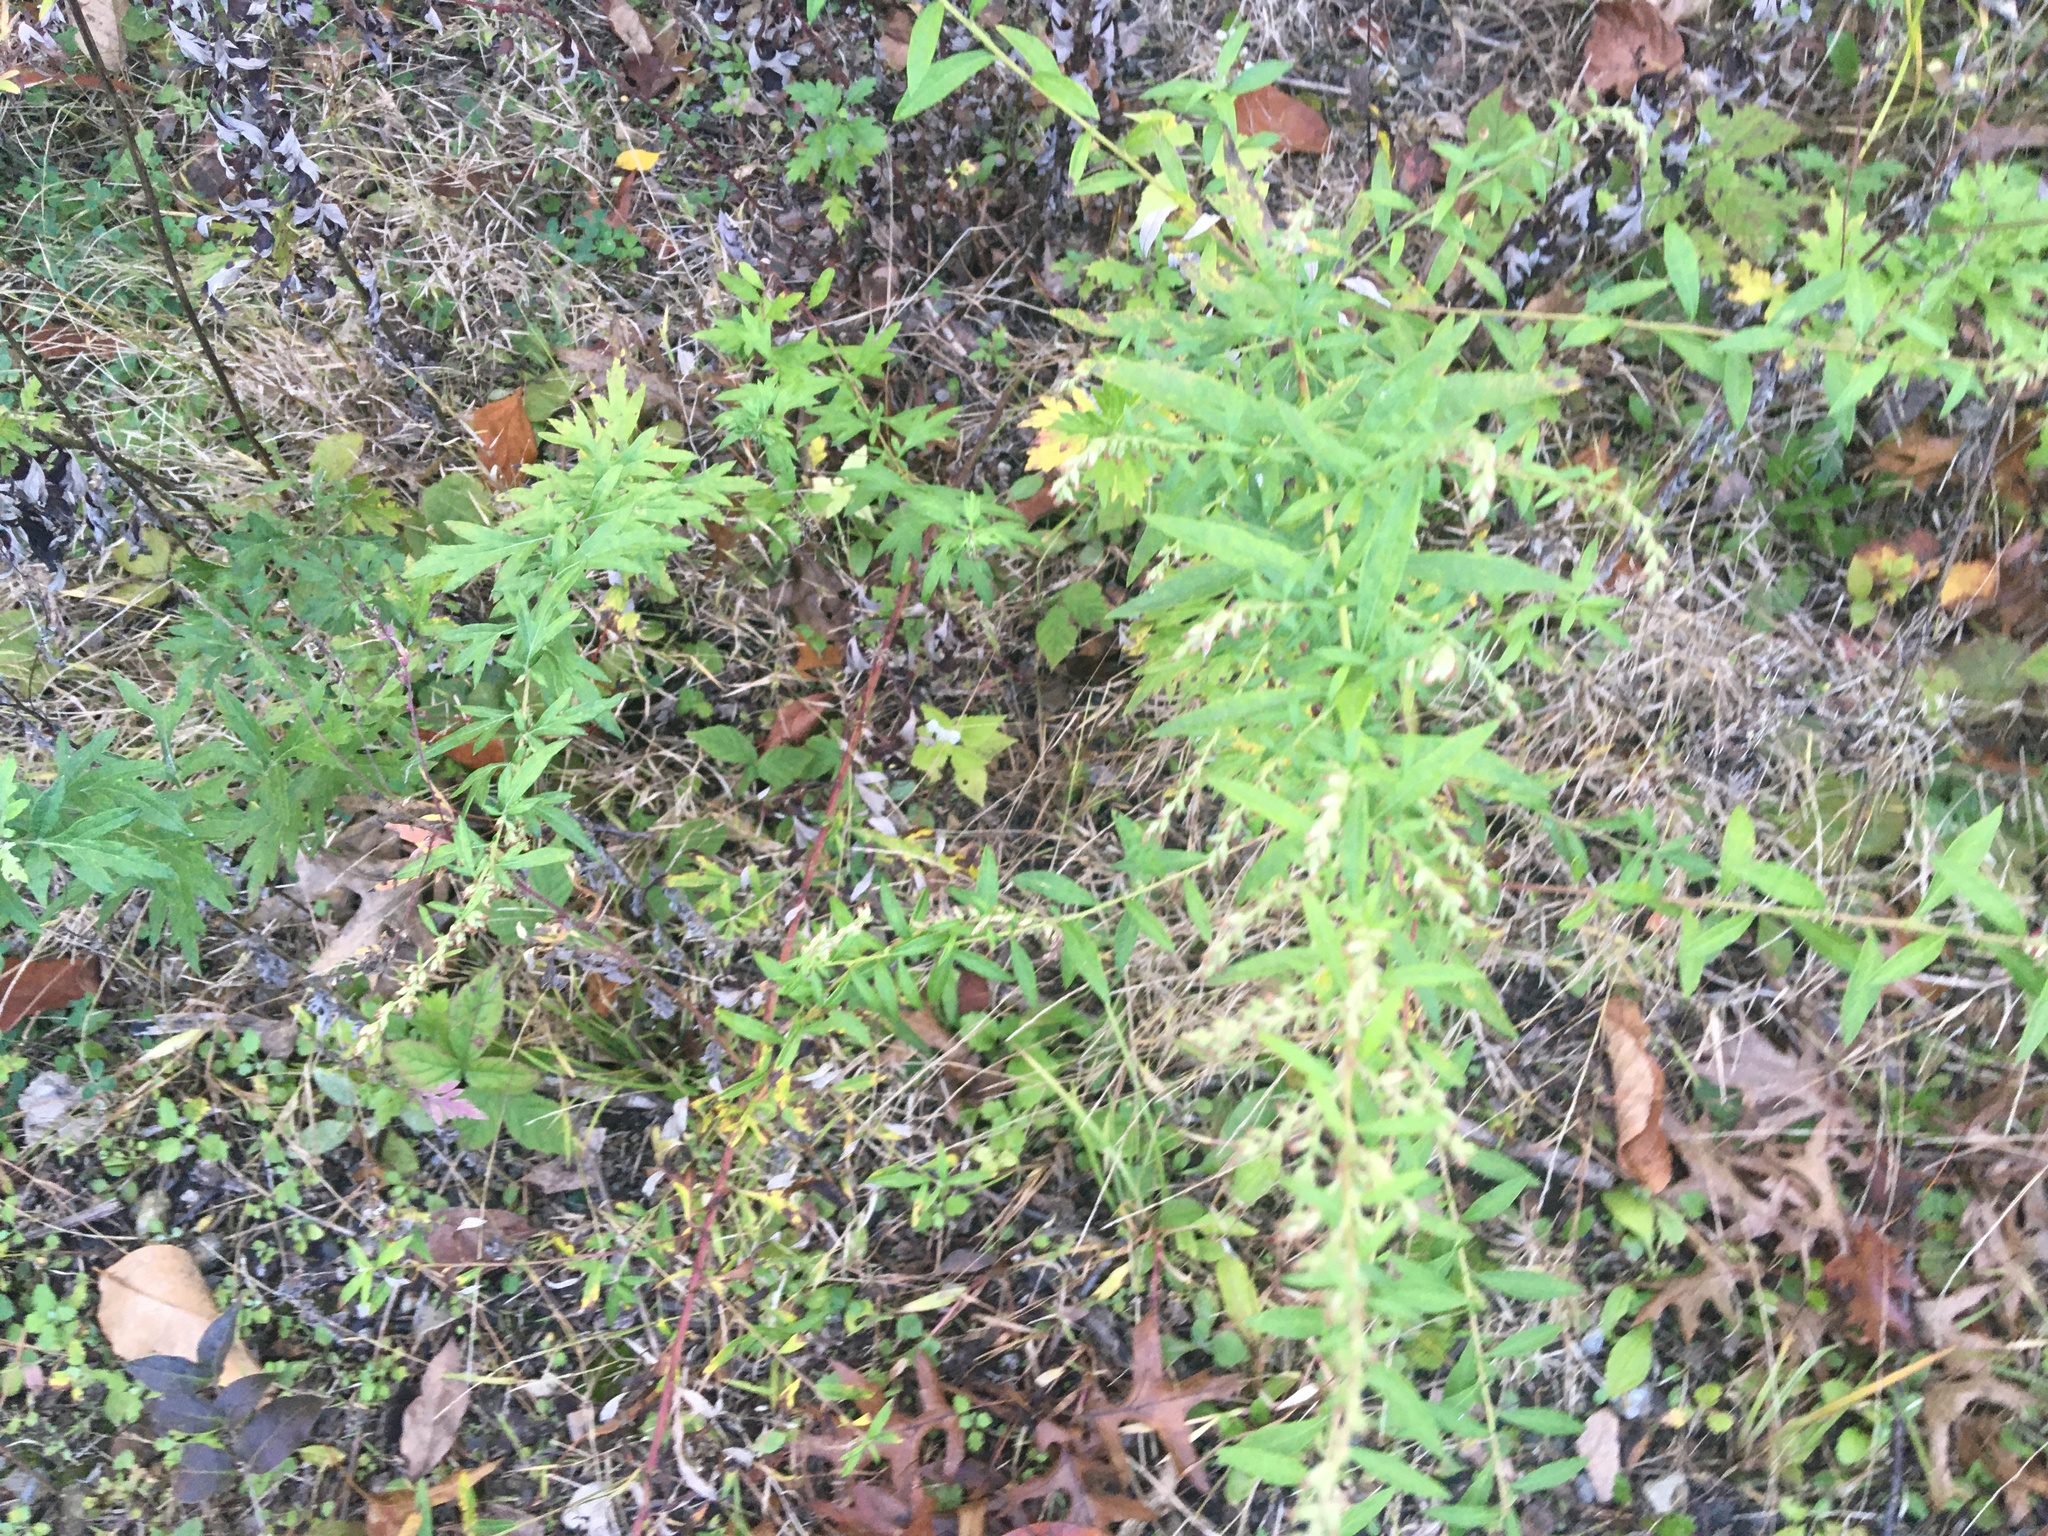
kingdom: Plantae
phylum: Tracheophyta
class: Magnoliopsida
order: Asterales
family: Asteraceae
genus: Artemisia
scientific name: Artemisia vulgaris
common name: Mugwort
